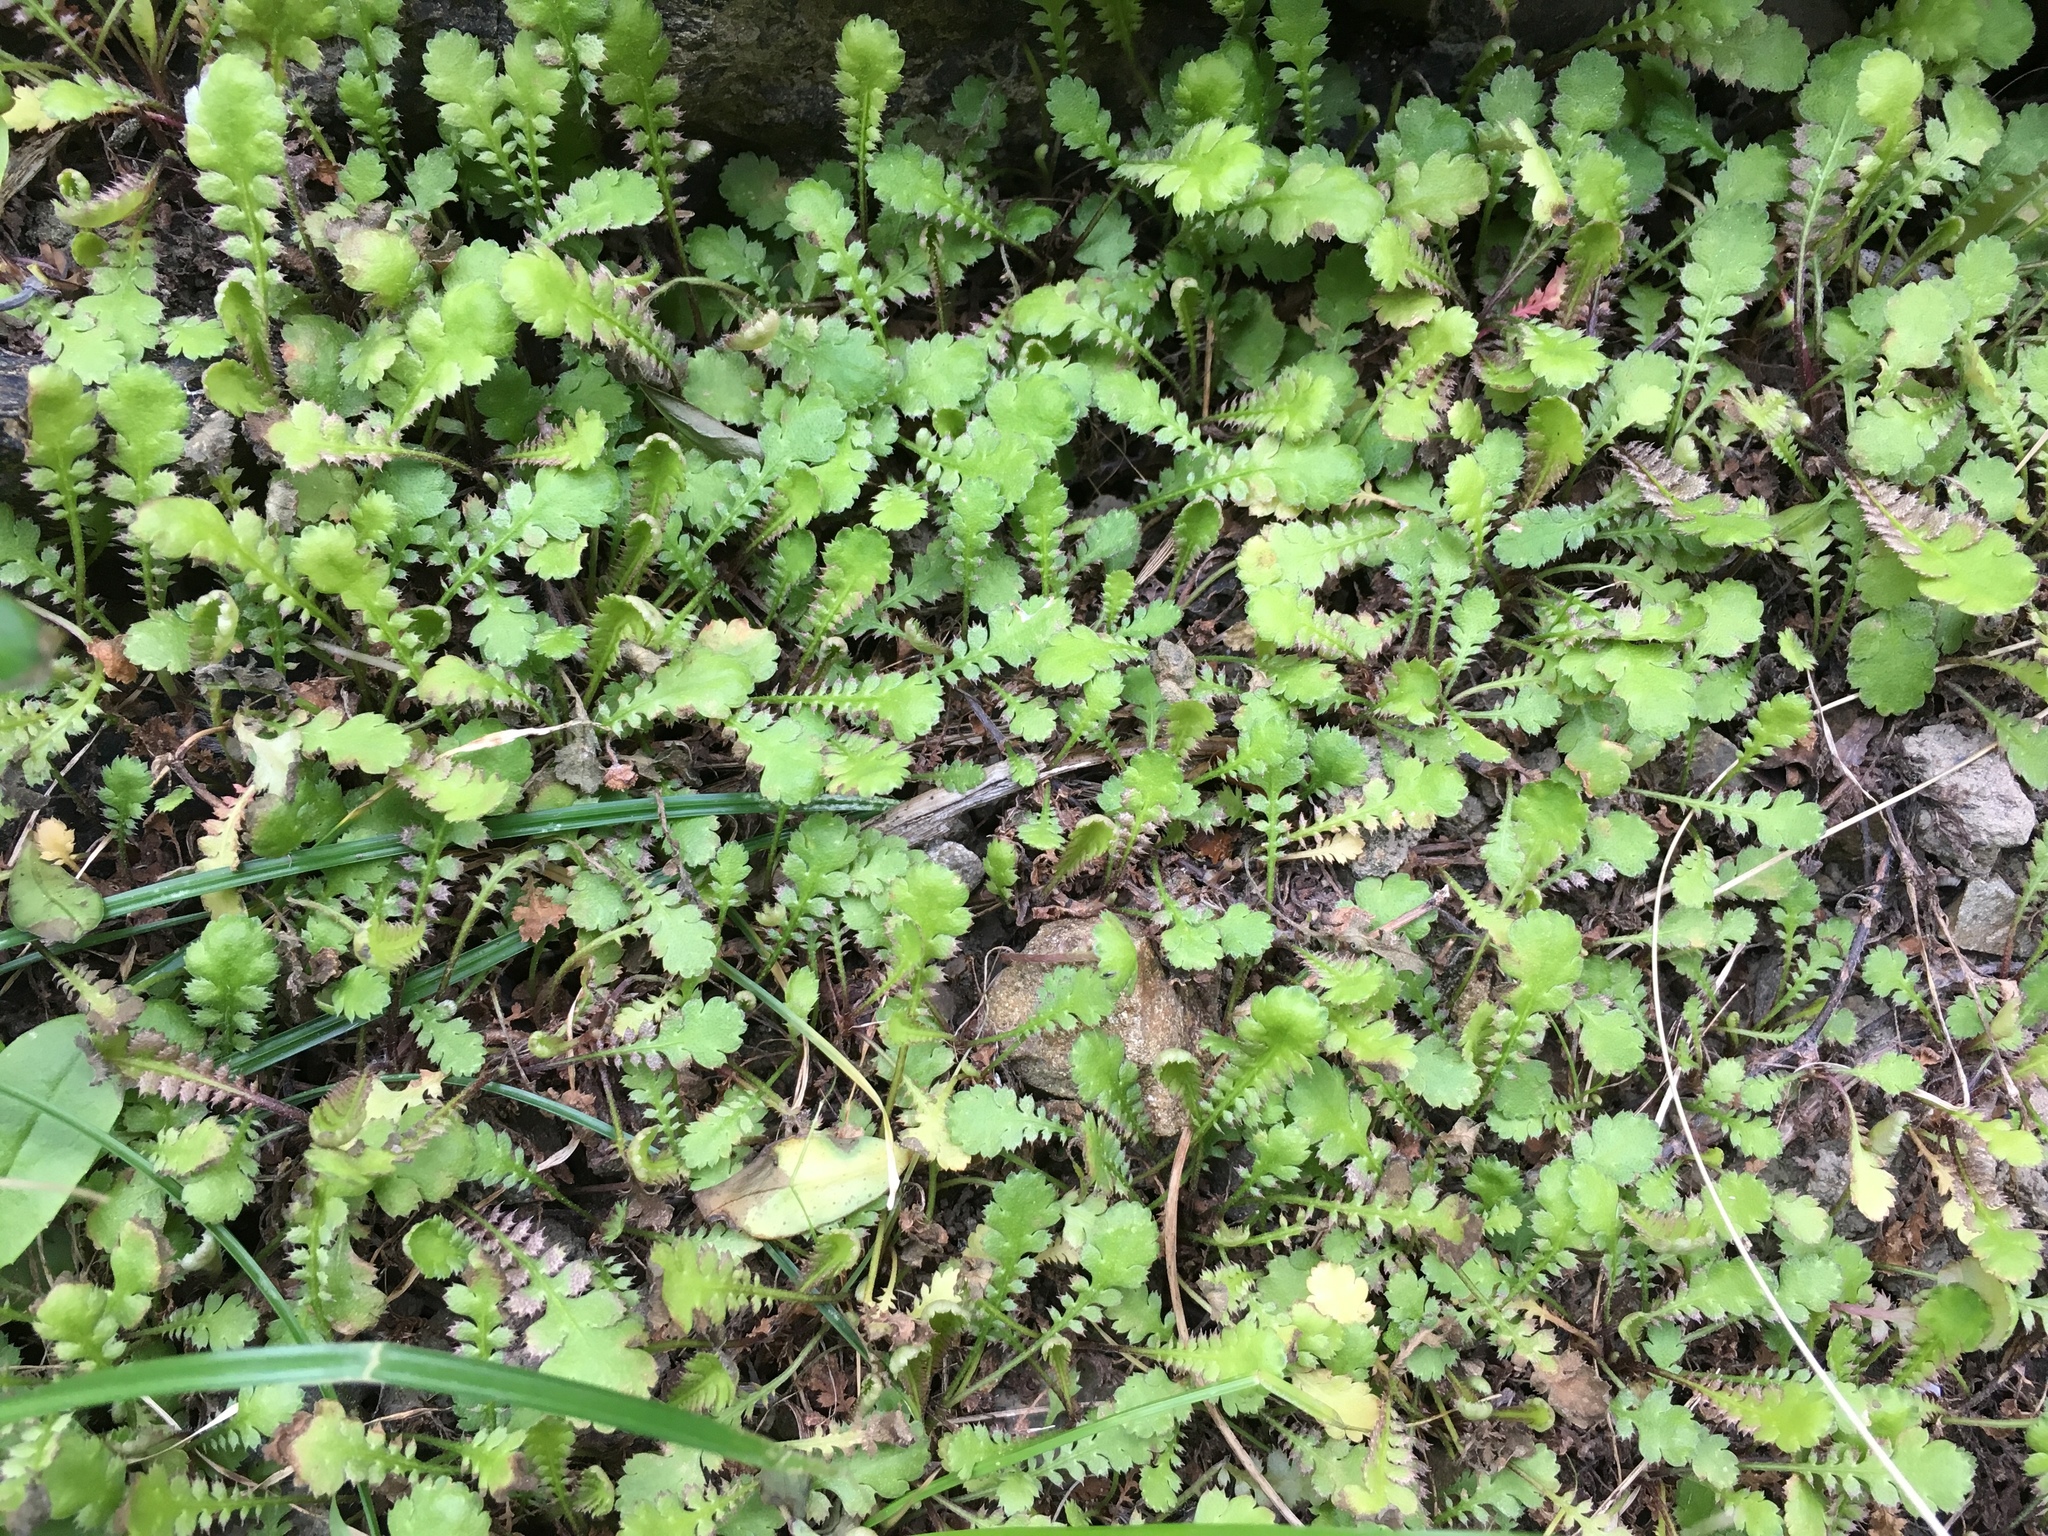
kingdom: Plantae
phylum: Tracheophyta
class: Magnoliopsida
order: Asterales
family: Asteraceae
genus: Leptinella
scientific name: Leptinella squalida
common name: New zealand brass-buttons
